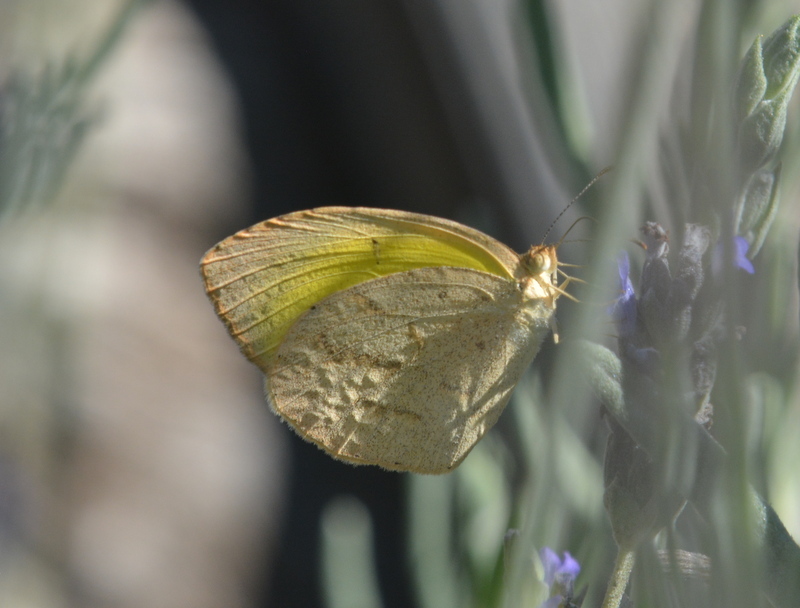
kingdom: Animalia
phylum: Arthropoda
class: Insecta
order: Lepidoptera
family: Pieridae
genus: Eurema
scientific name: Eurema brigitta
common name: Small grass yellow
